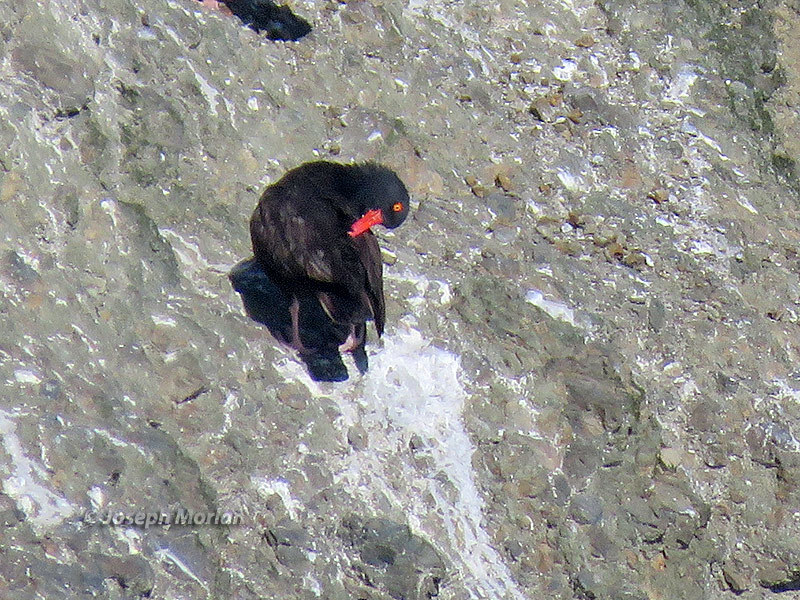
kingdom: Animalia
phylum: Chordata
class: Aves
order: Charadriiformes
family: Haematopodidae
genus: Haematopus
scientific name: Haematopus bachmani
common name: Black oystercatcher
